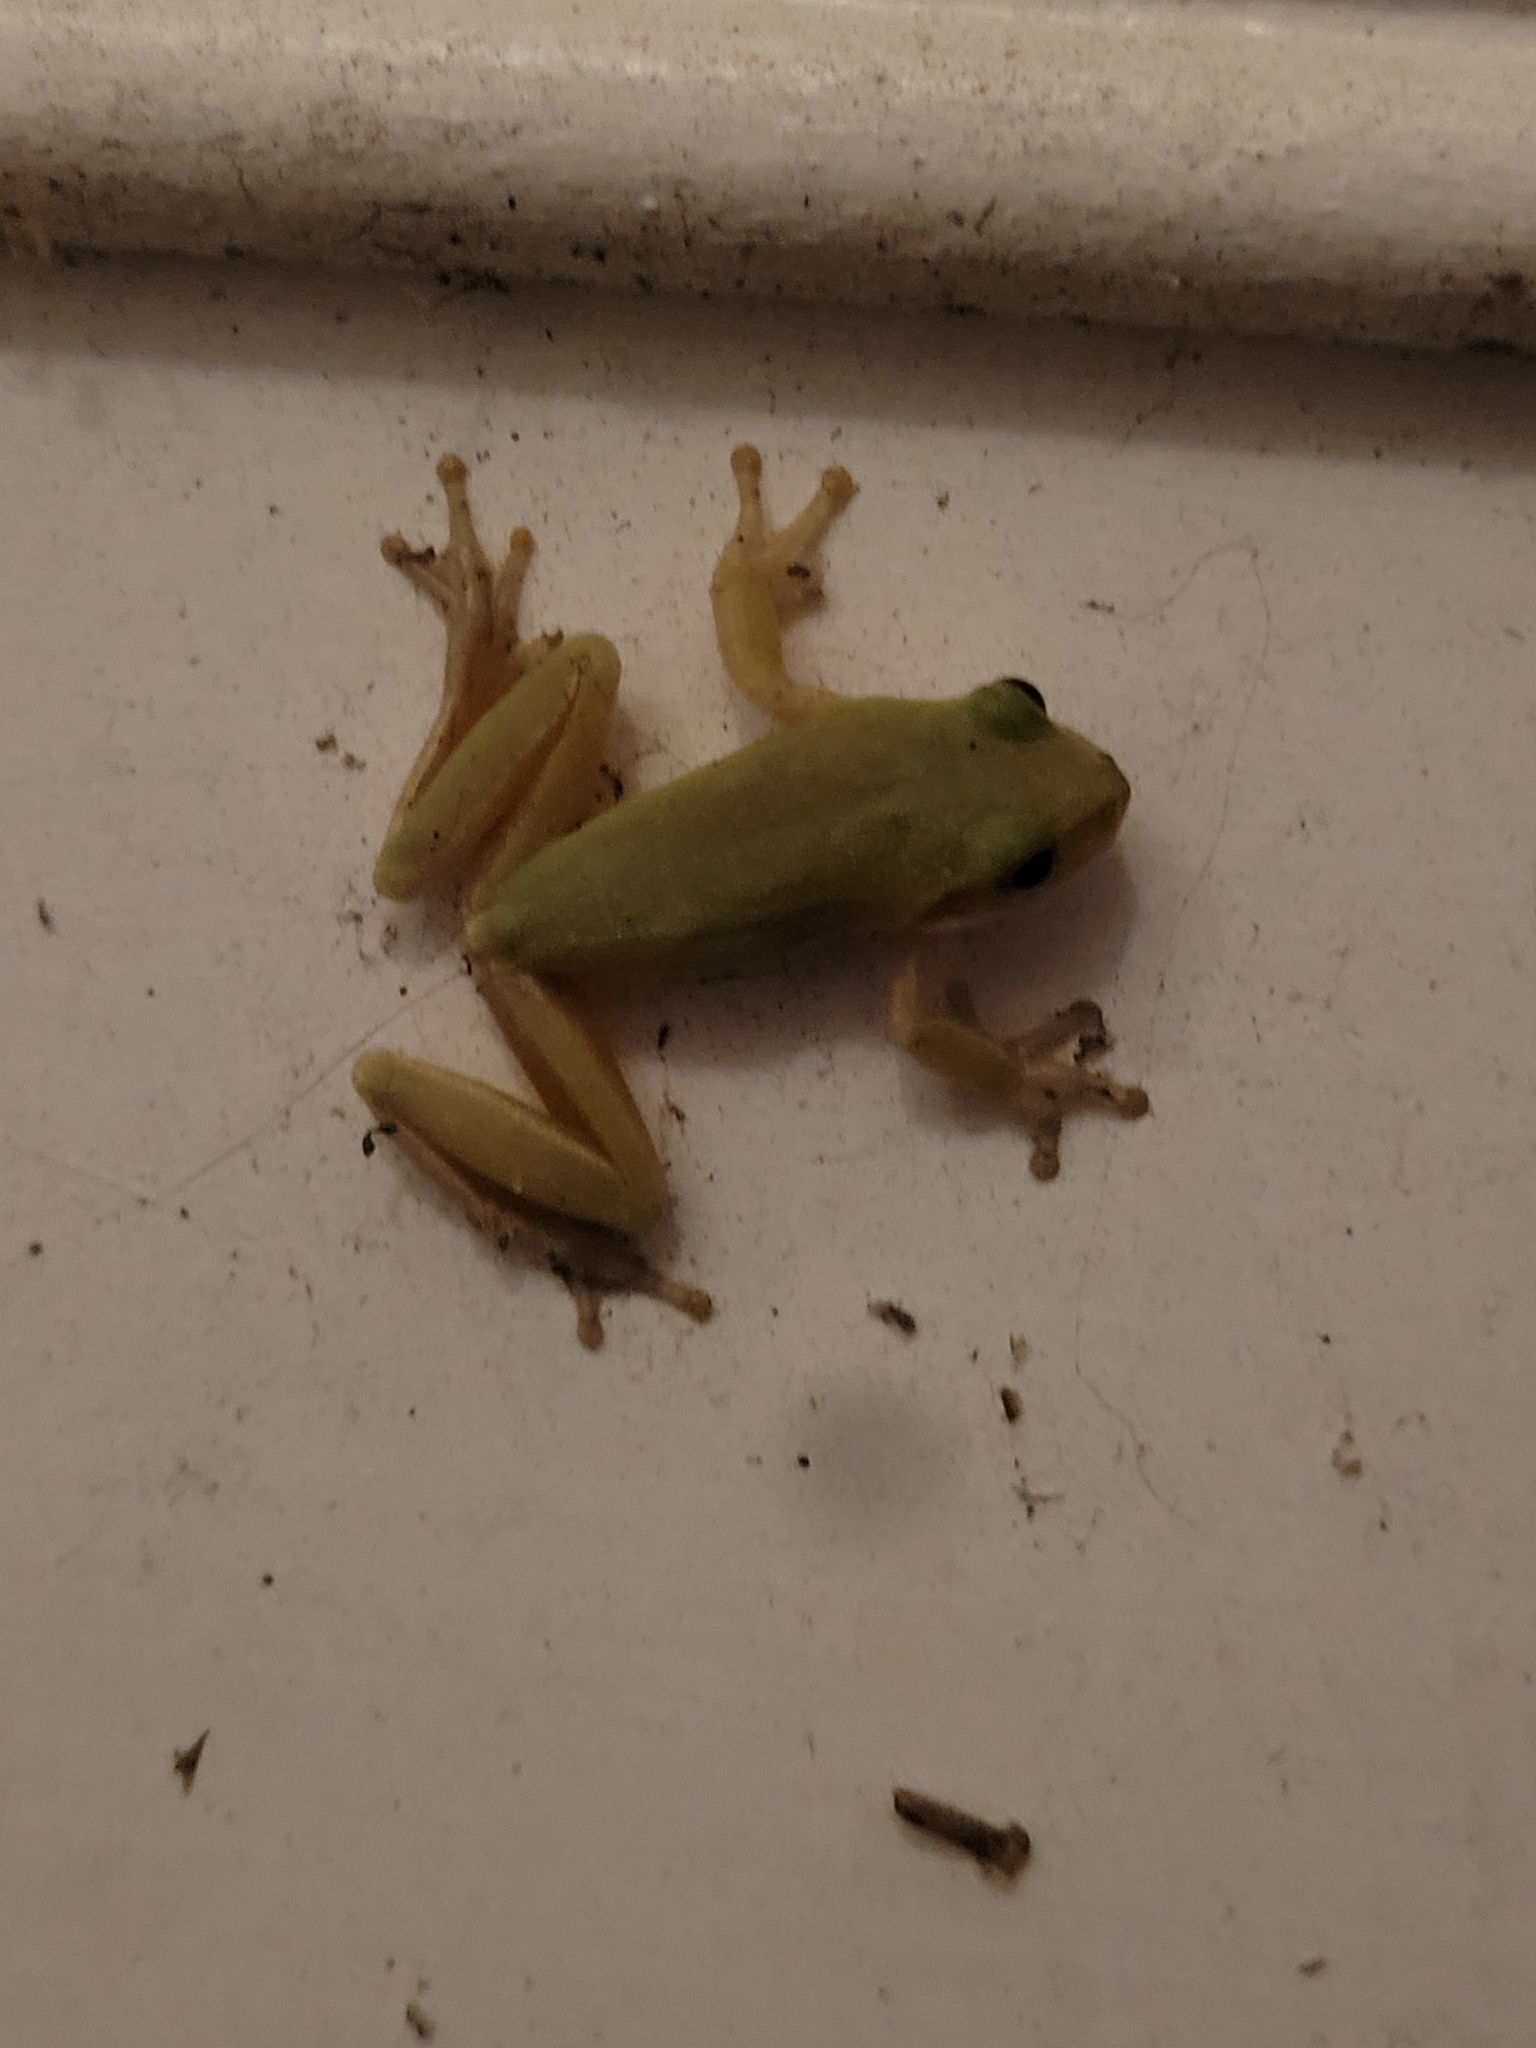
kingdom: Animalia
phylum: Chordata
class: Amphibia
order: Anura
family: Hylidae
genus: Dryophytes
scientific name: Dryophytes squirellus
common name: Squirrel treefrog
